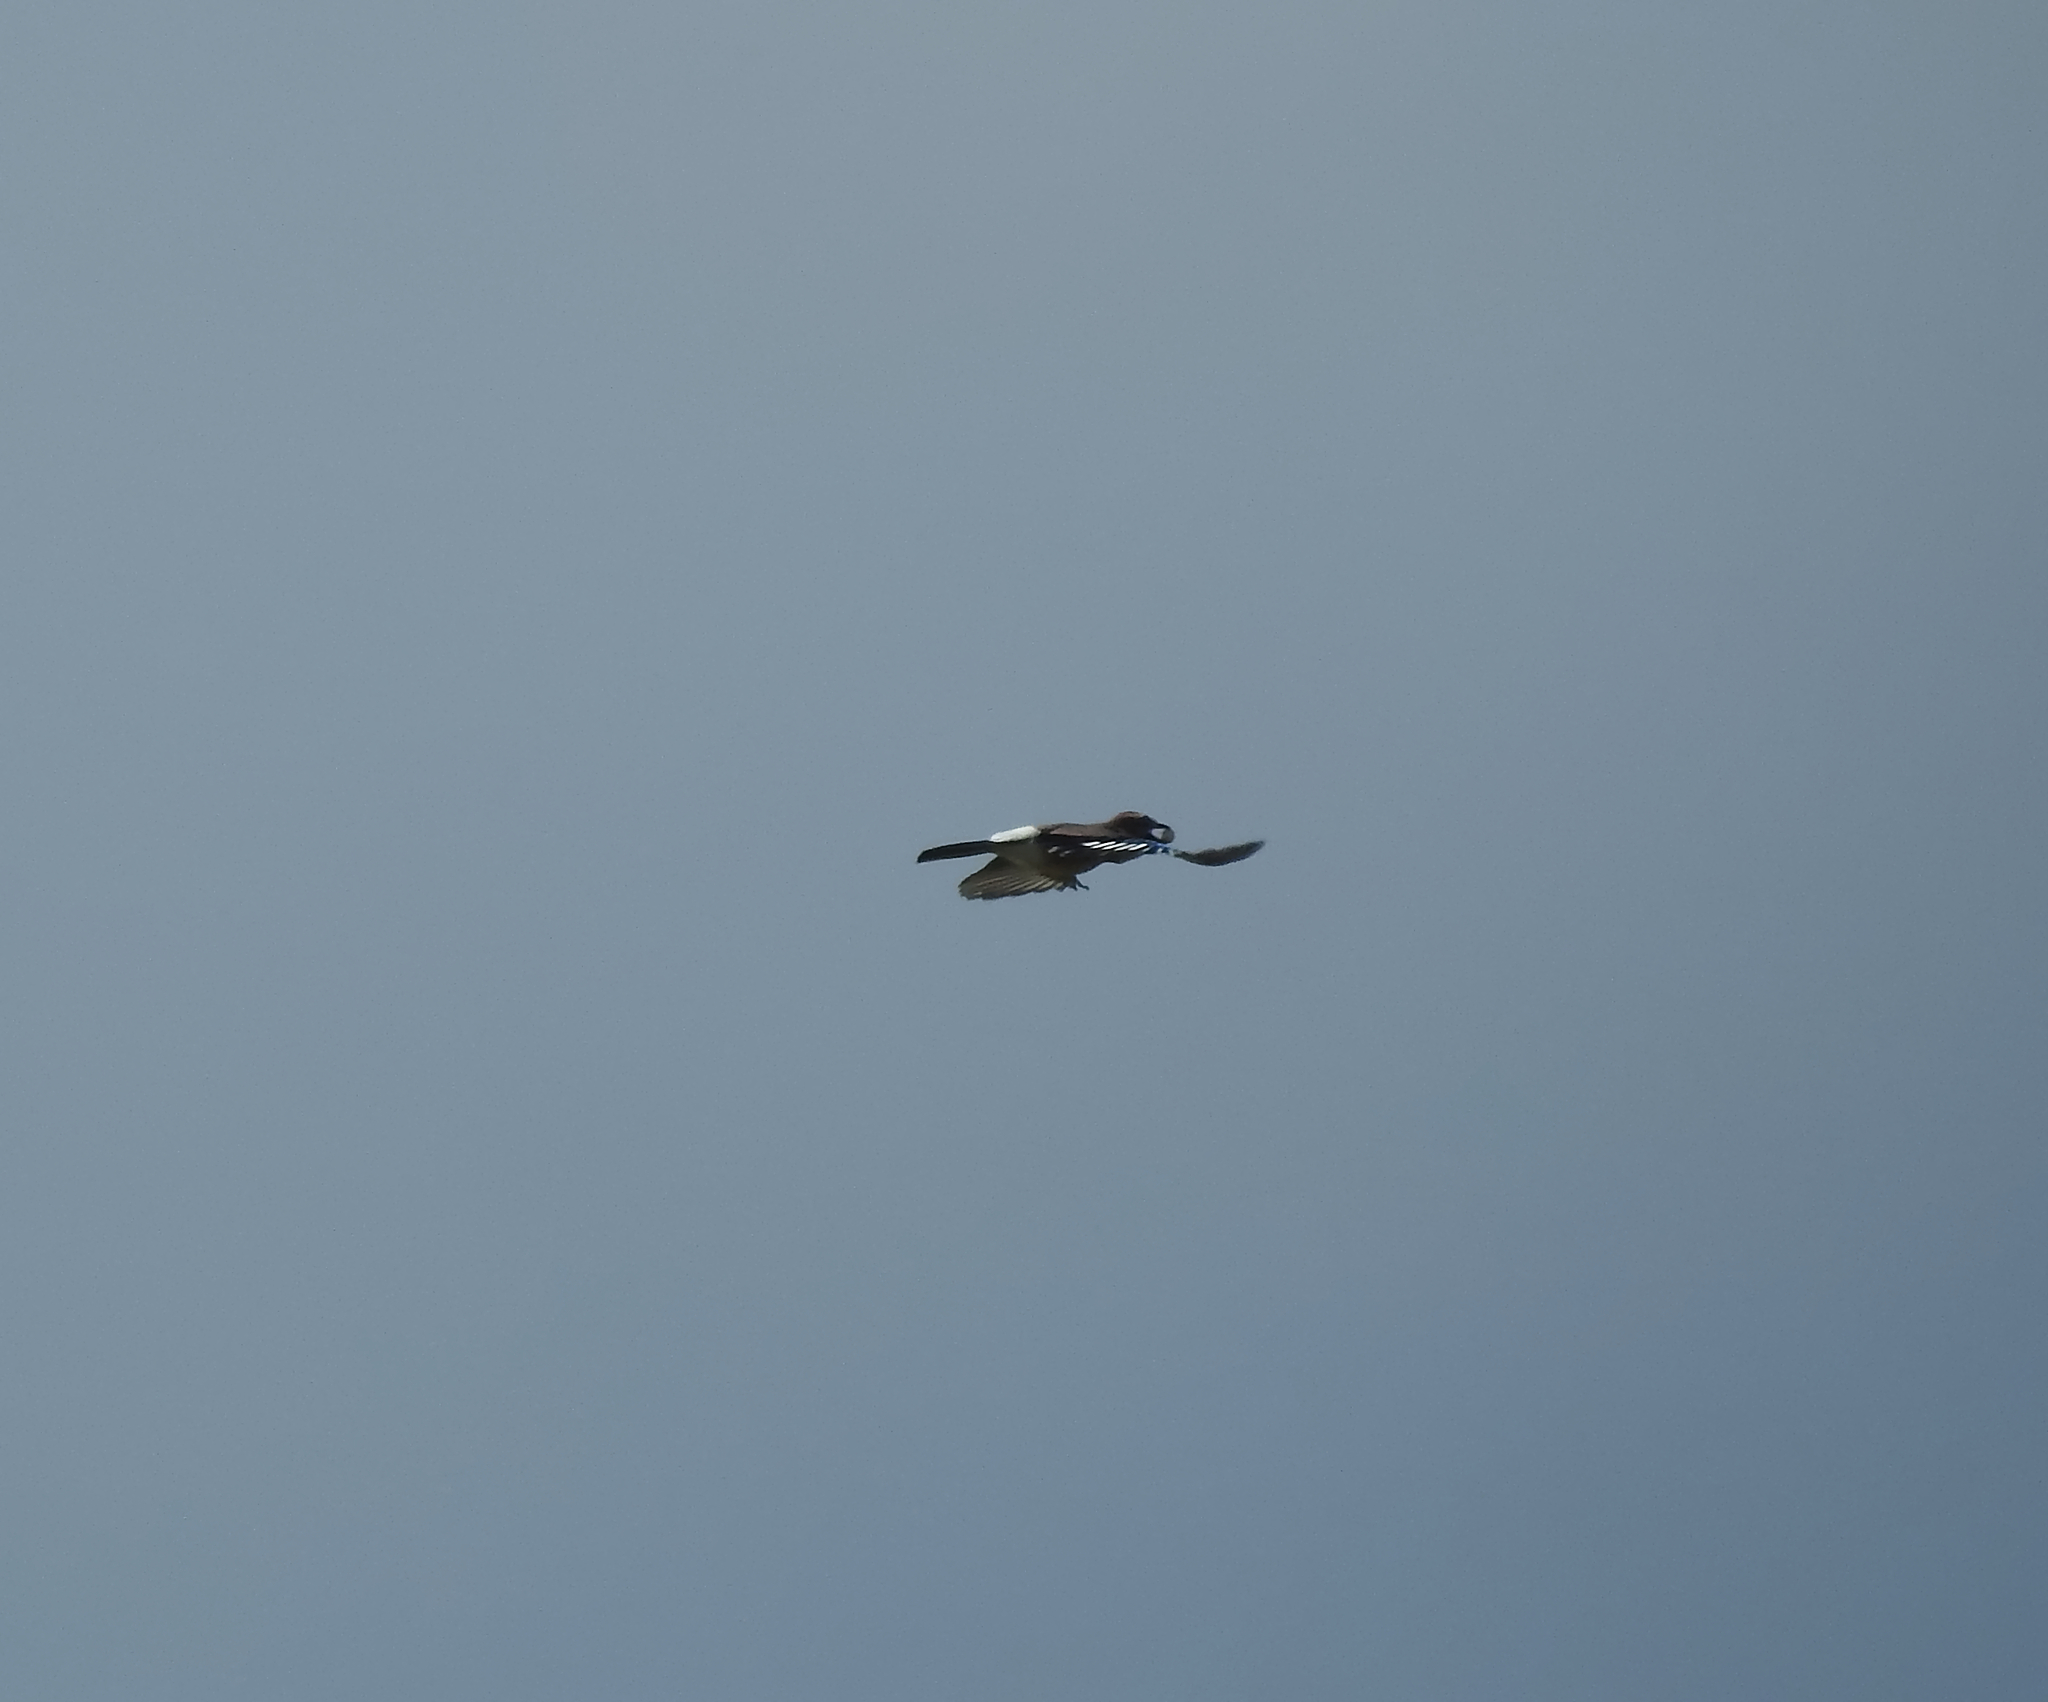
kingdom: Animalia
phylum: Chordata
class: Aves
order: Passeriformes
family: Corvidae
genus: Garrulus
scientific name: Garrulus glandarius
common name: Eurasian jay
